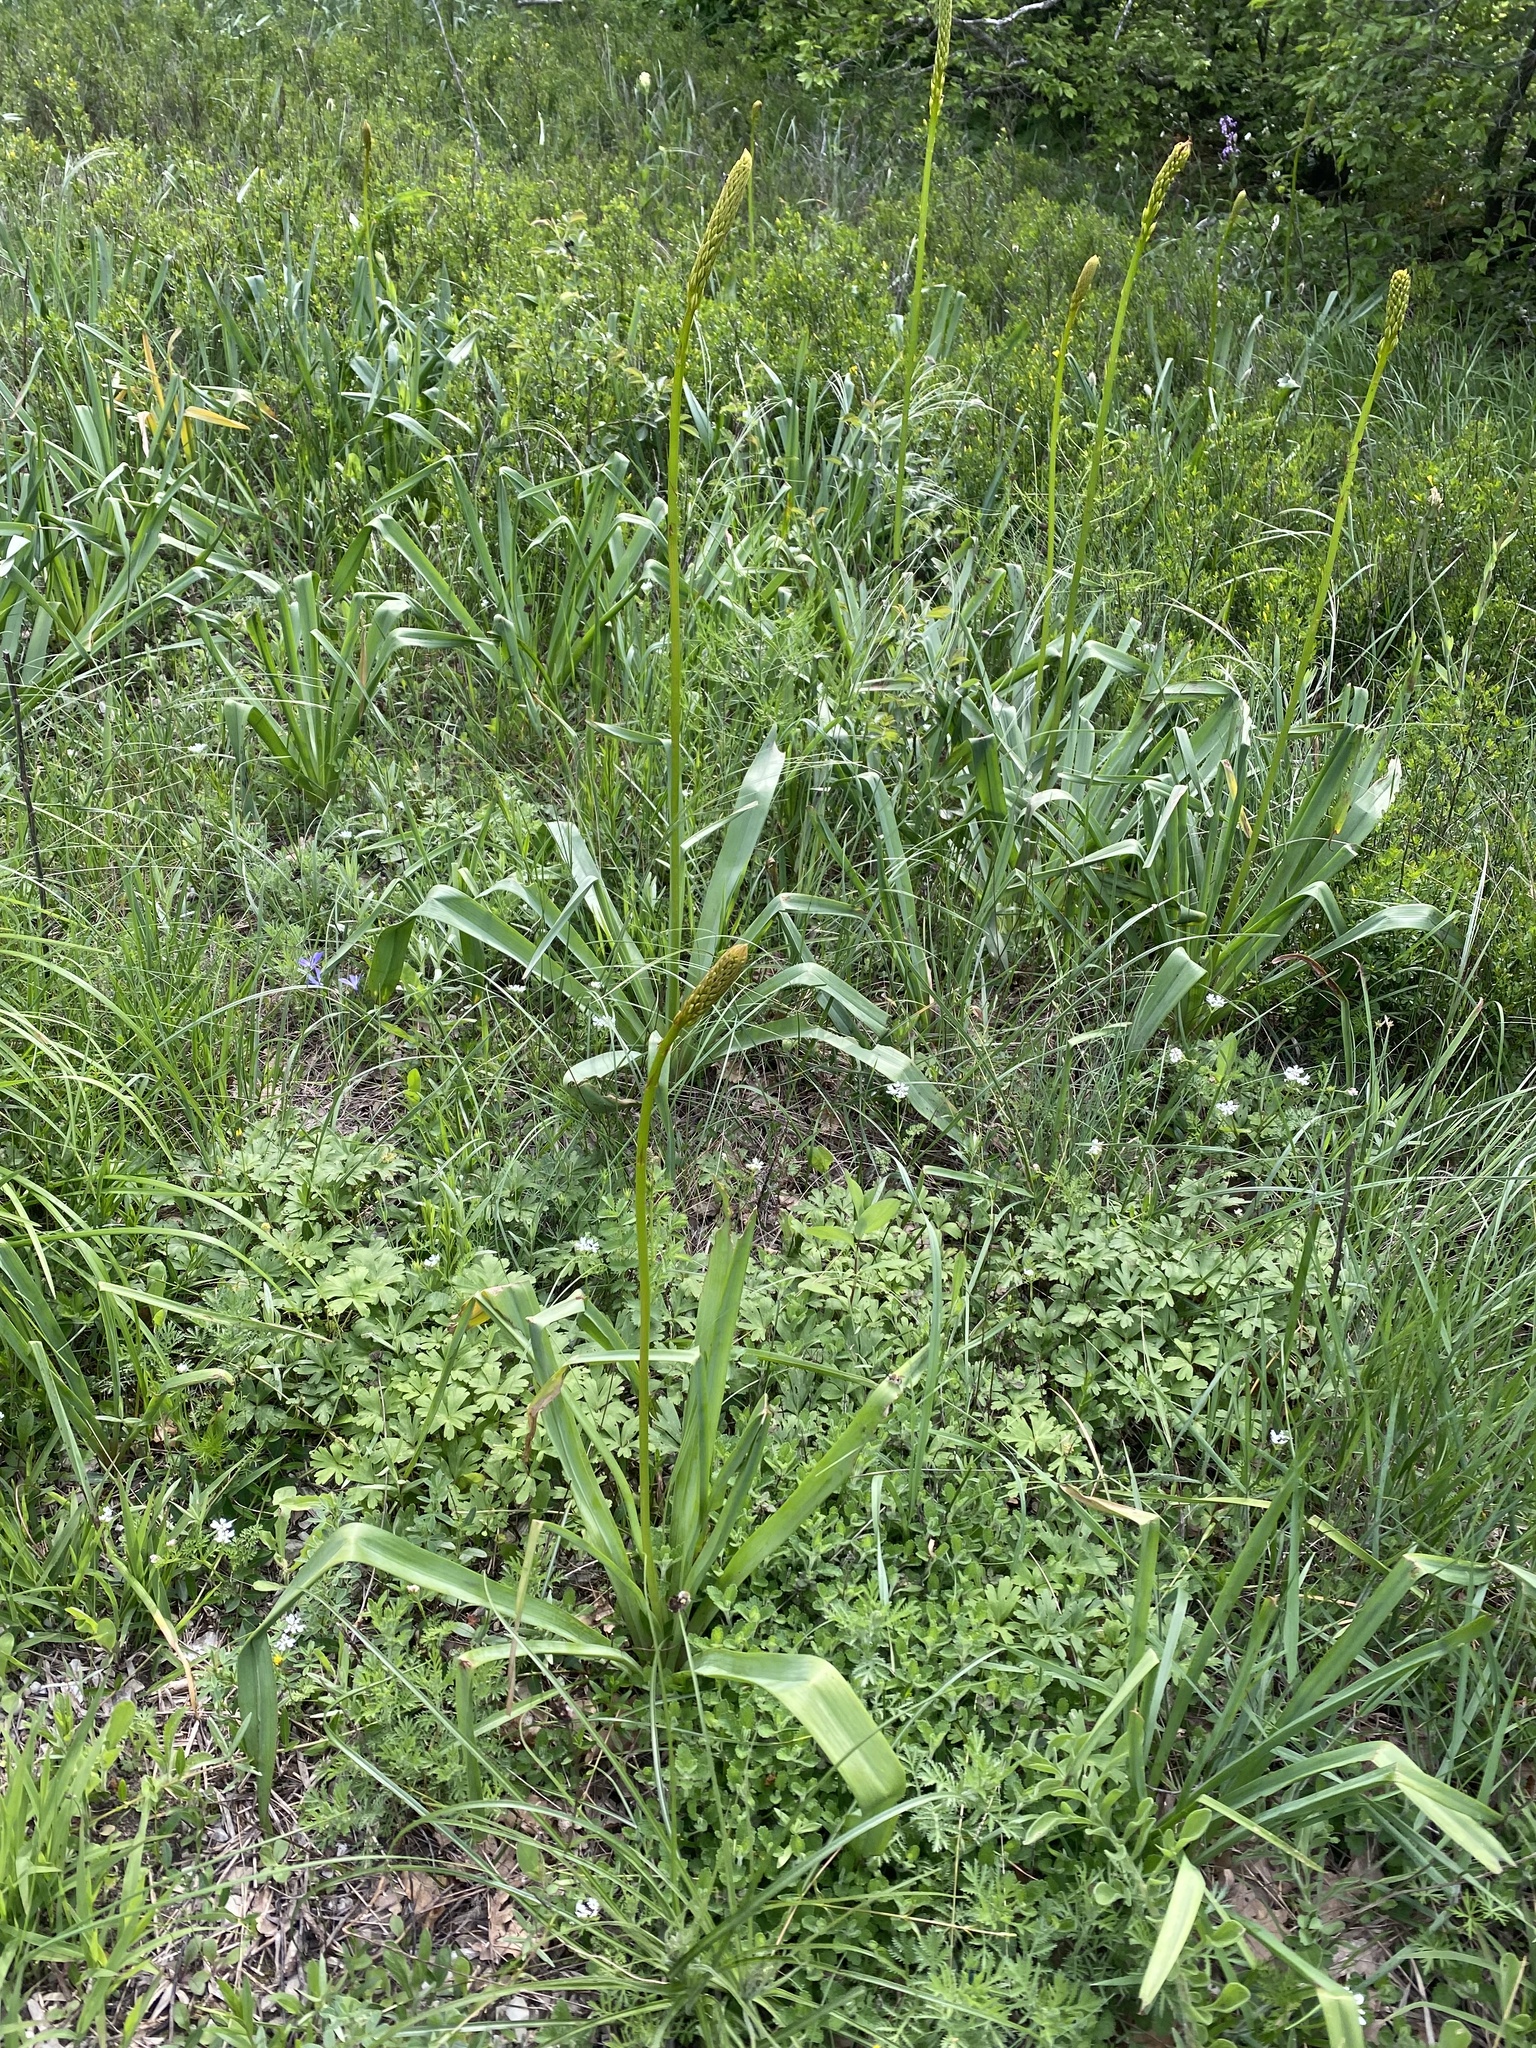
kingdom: Plantae
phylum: Tracheophyta
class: Liliopsida
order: Asparagales
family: Asphodelaceae
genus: Eremurus
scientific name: Eremurus spectabilis
